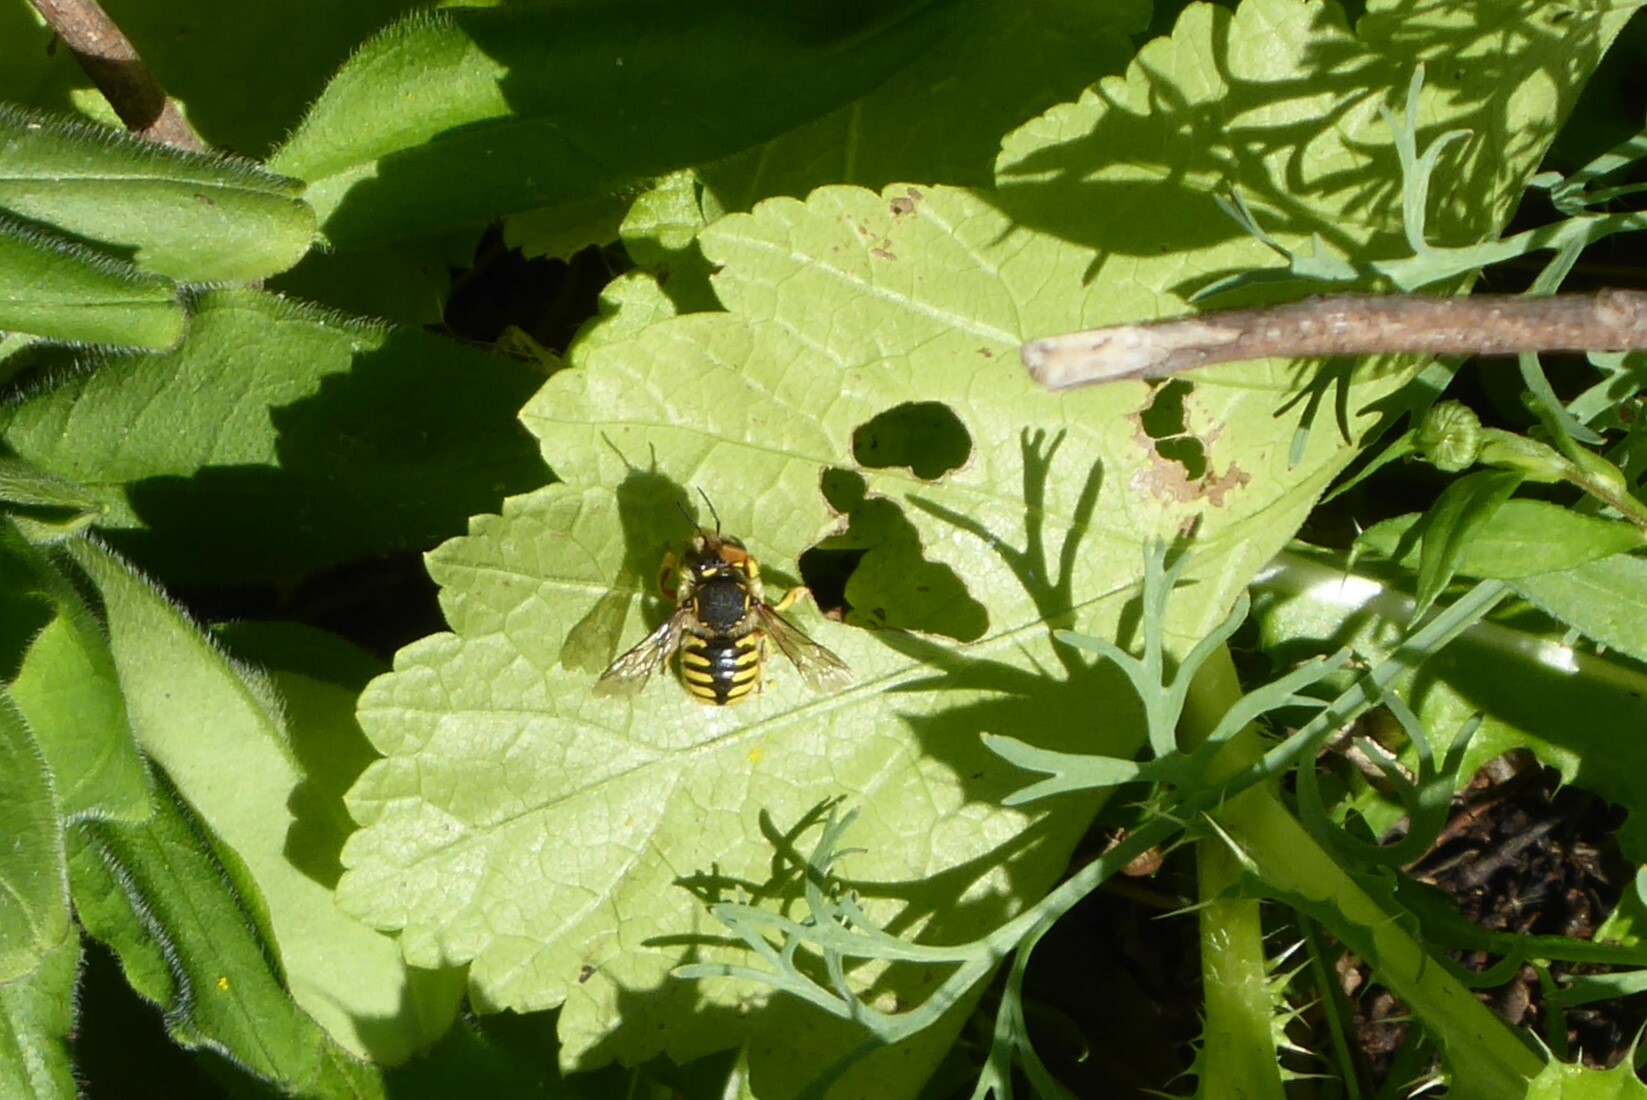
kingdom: Animalia
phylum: Arthropoda
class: Insecta
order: Hymenoptera
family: Megachilidae
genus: Anthidium
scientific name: Anthidium manicatum
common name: Wool carder bee
